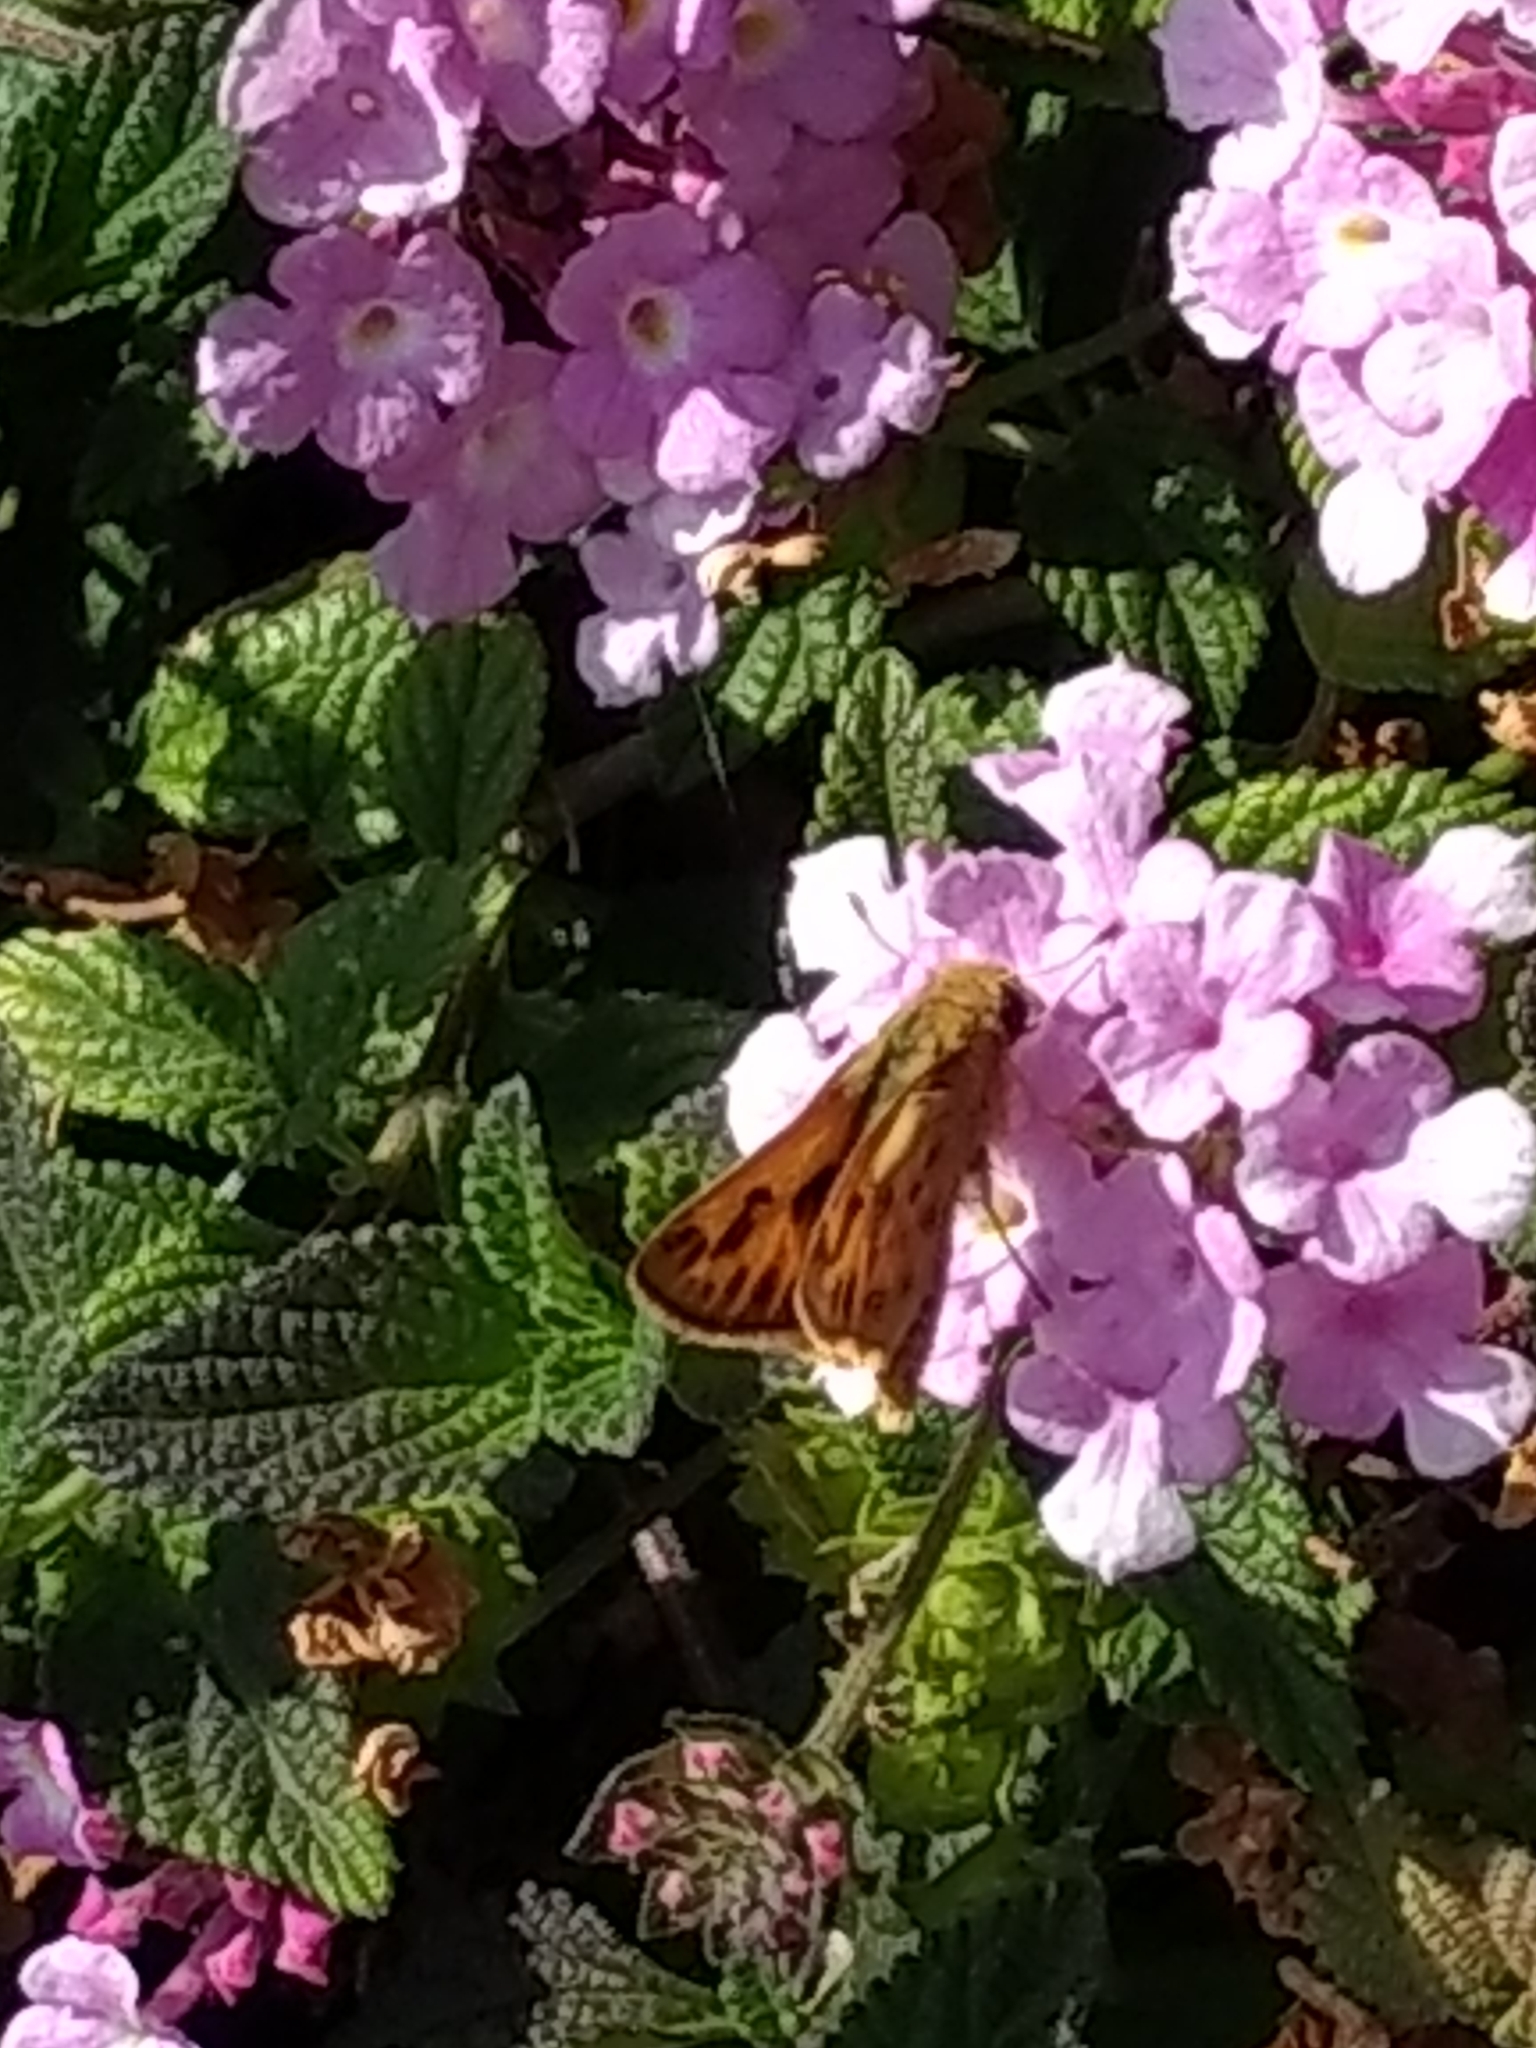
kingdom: Animalia
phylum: Arthropoda
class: Insecta
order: Lepidoptera
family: Hesperiidae
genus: Hylephila
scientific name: Hylephila phyleus
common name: Fiery skipper
